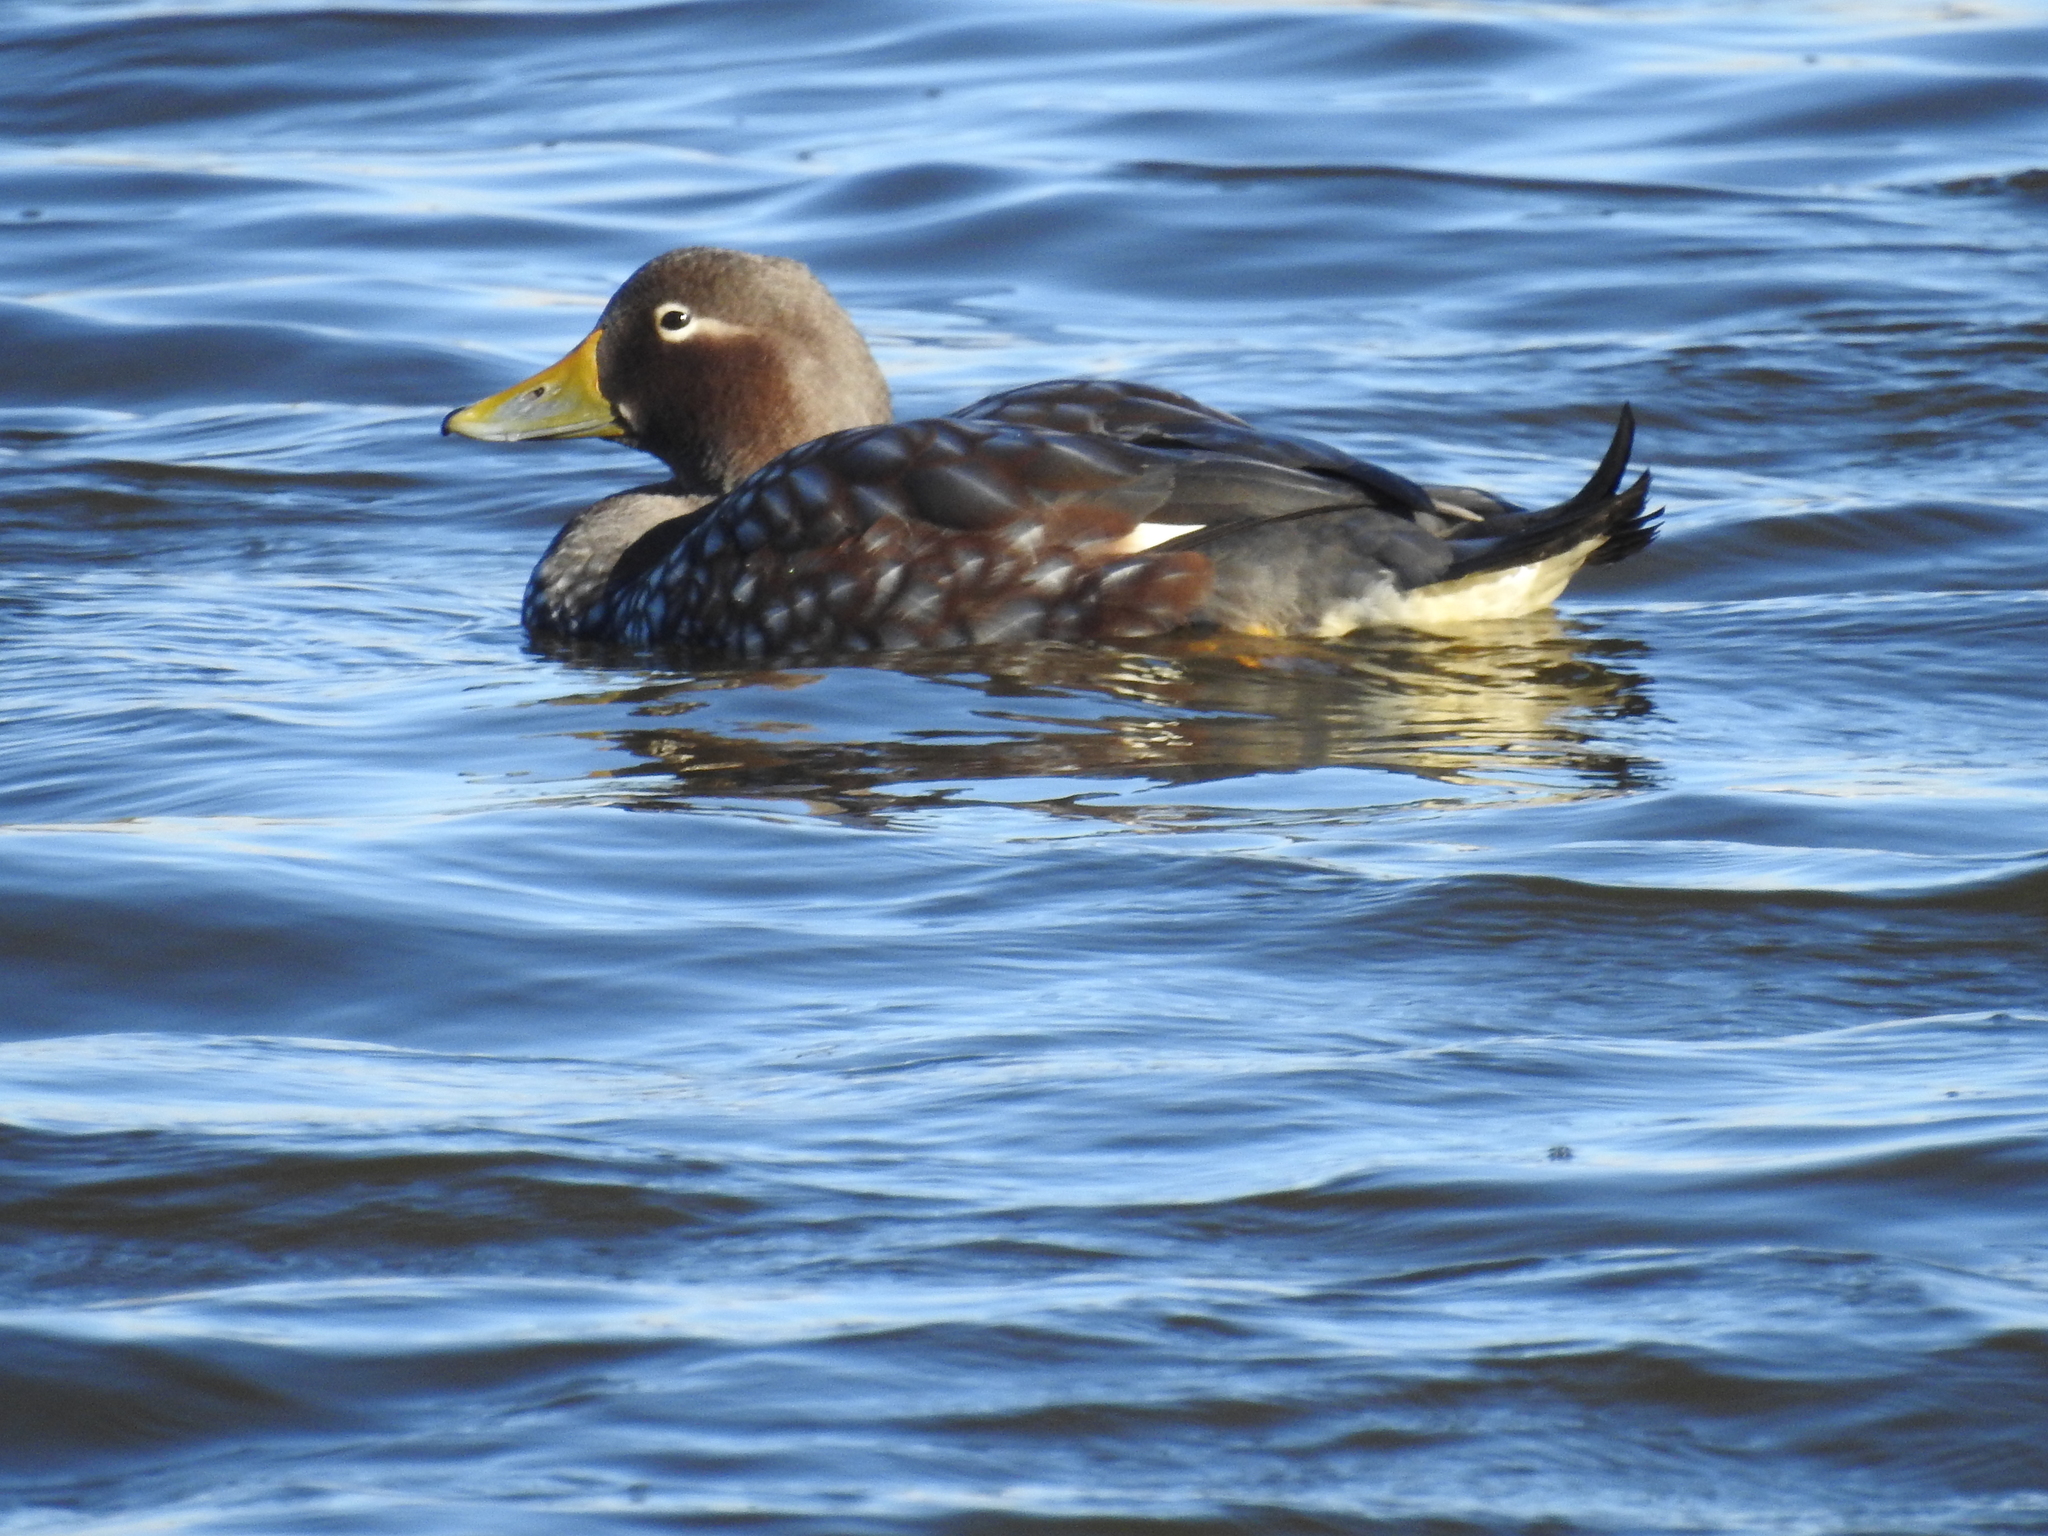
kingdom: Animalia
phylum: Chordata
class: Aves
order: Anseriformes
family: Anatidae
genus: Tachyeres
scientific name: Tachyeres patachonicus
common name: Flying steamer duck
